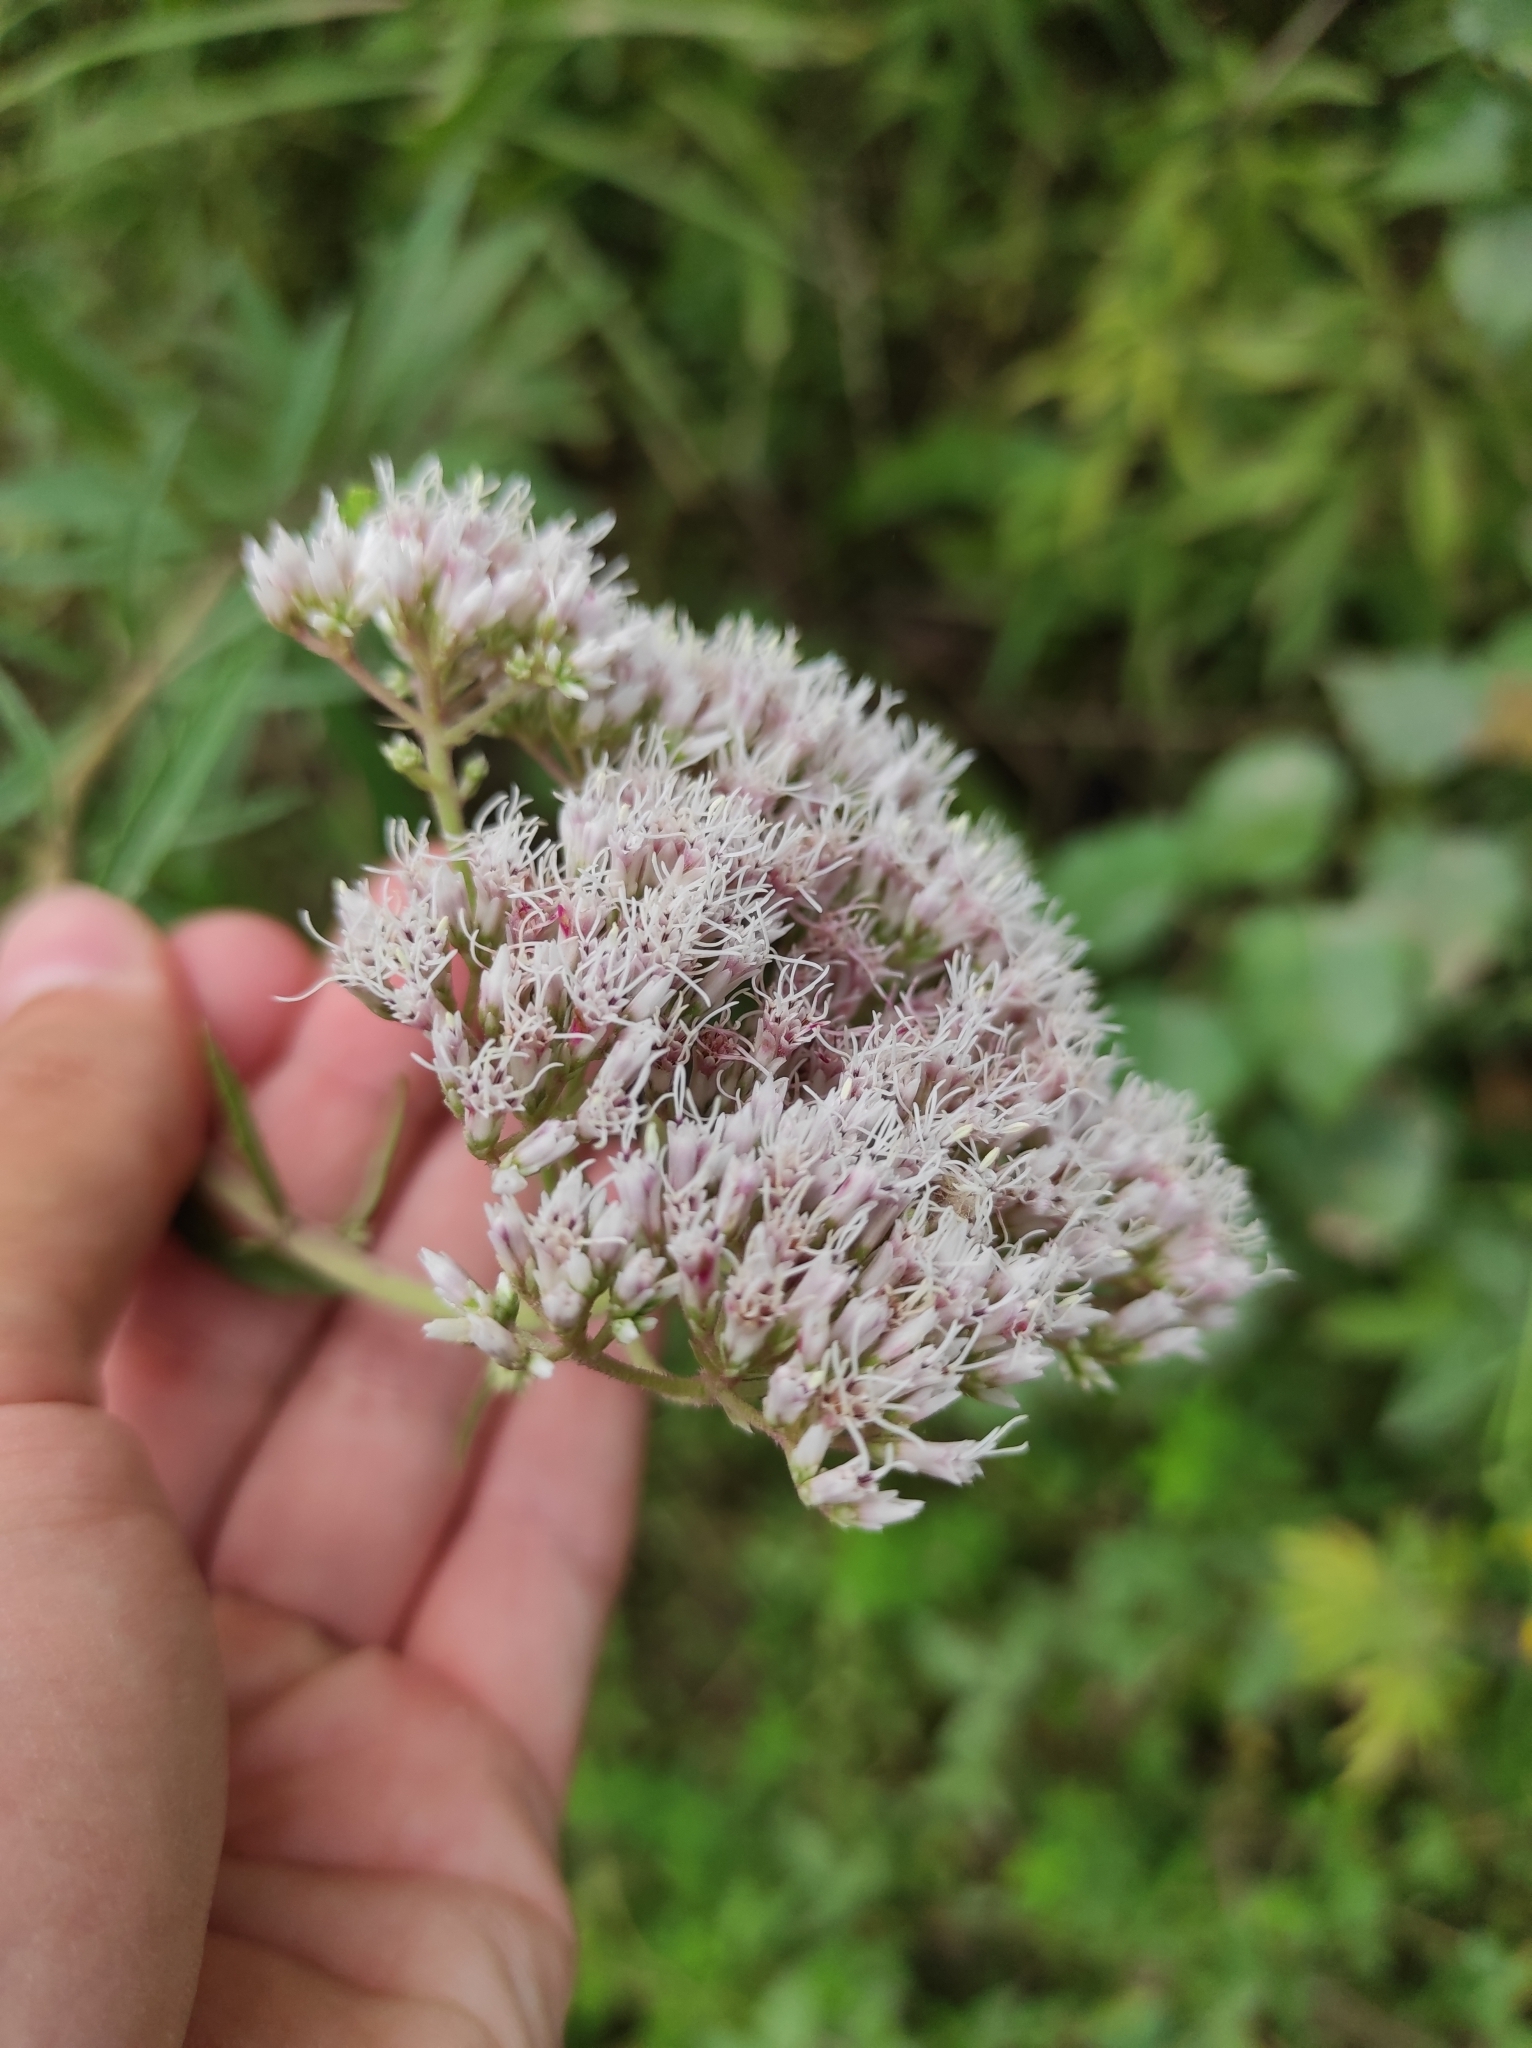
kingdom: Plantae
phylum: Tracheophyta
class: Magnoliopsida
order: Asterales
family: Asteraceae
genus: Eupatorium
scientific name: Eupatorium lindleyanum
